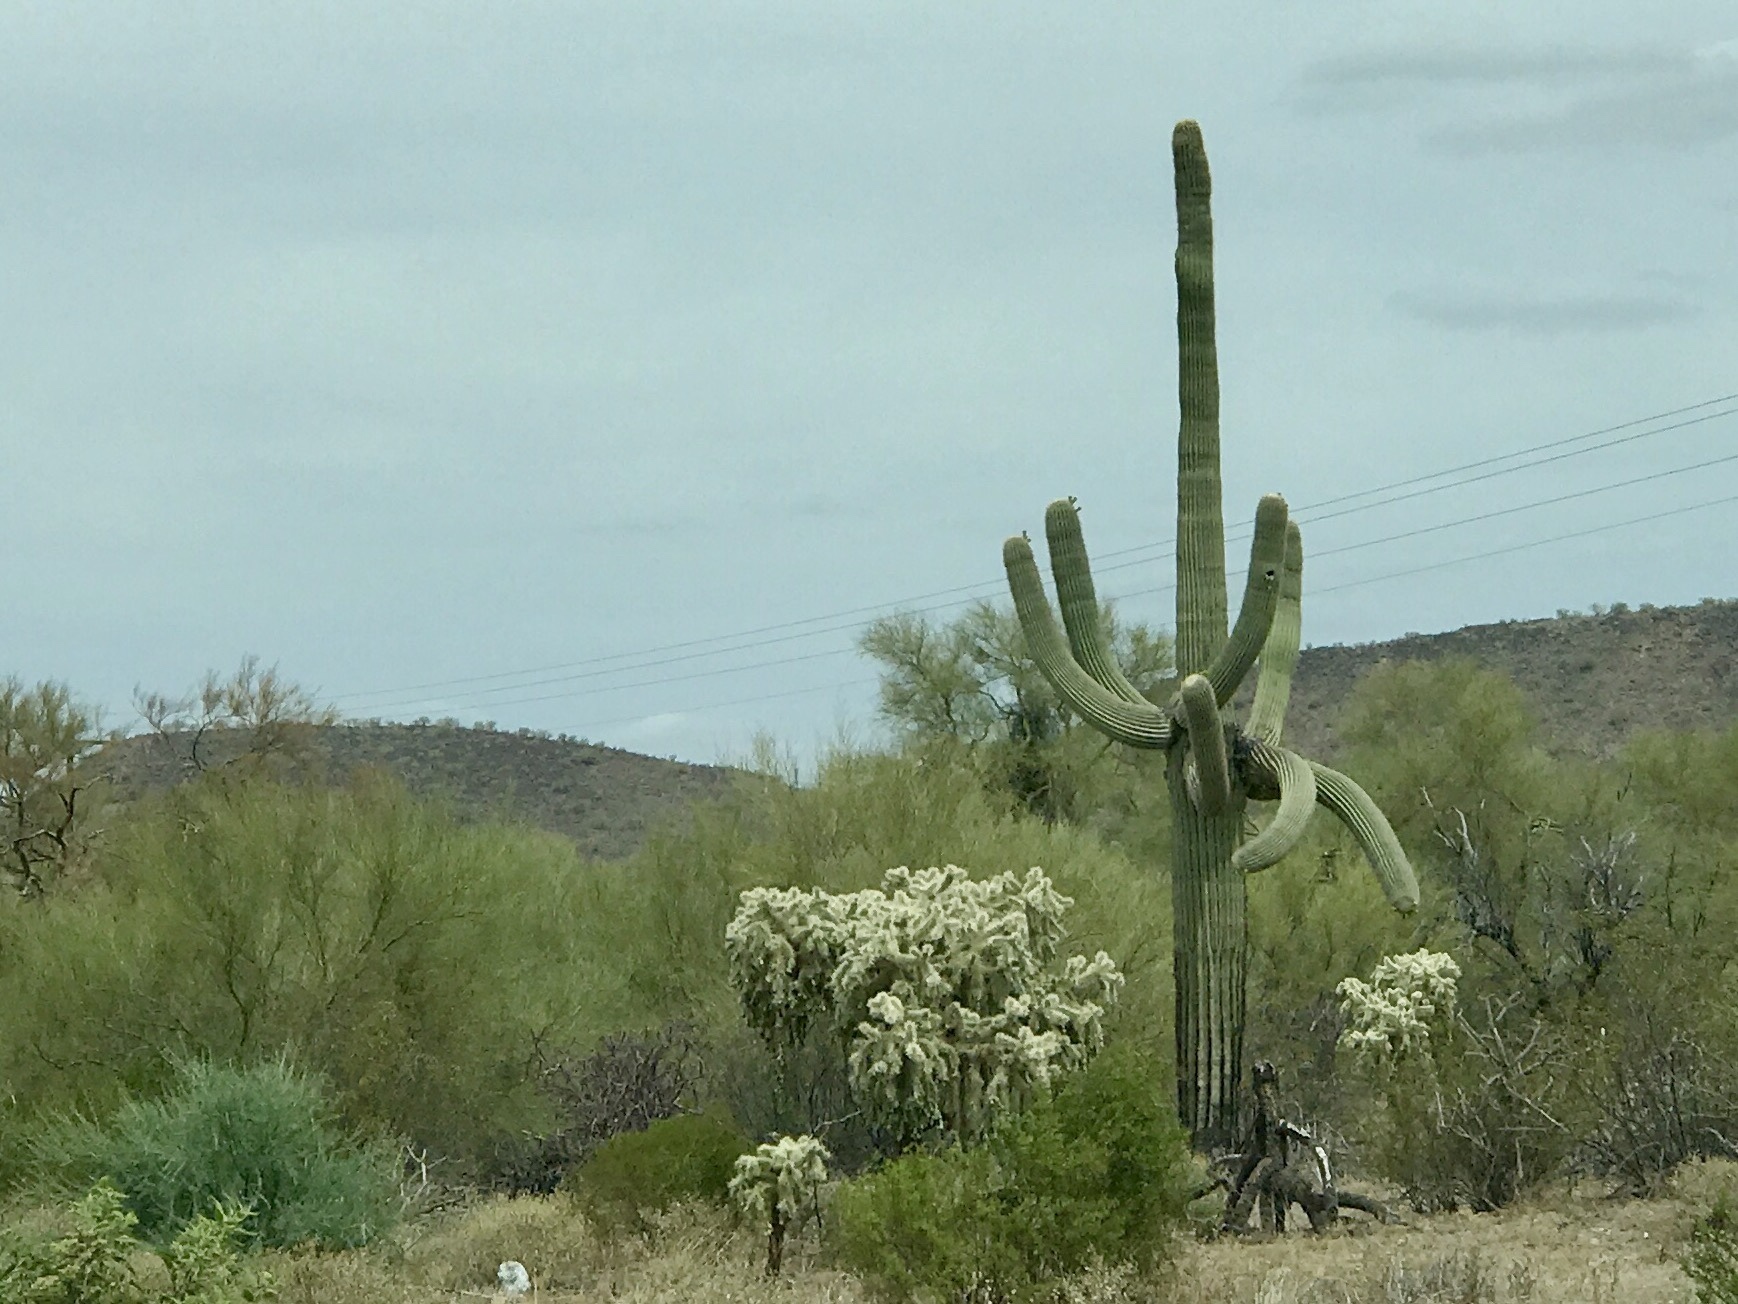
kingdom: Plantae
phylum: Tracheophyta
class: Magnoliopsida
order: Caryophyllales
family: Cactaceae
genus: Cylindropuntia
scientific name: Cylindropuntia fulgida
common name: Jumping cholla
